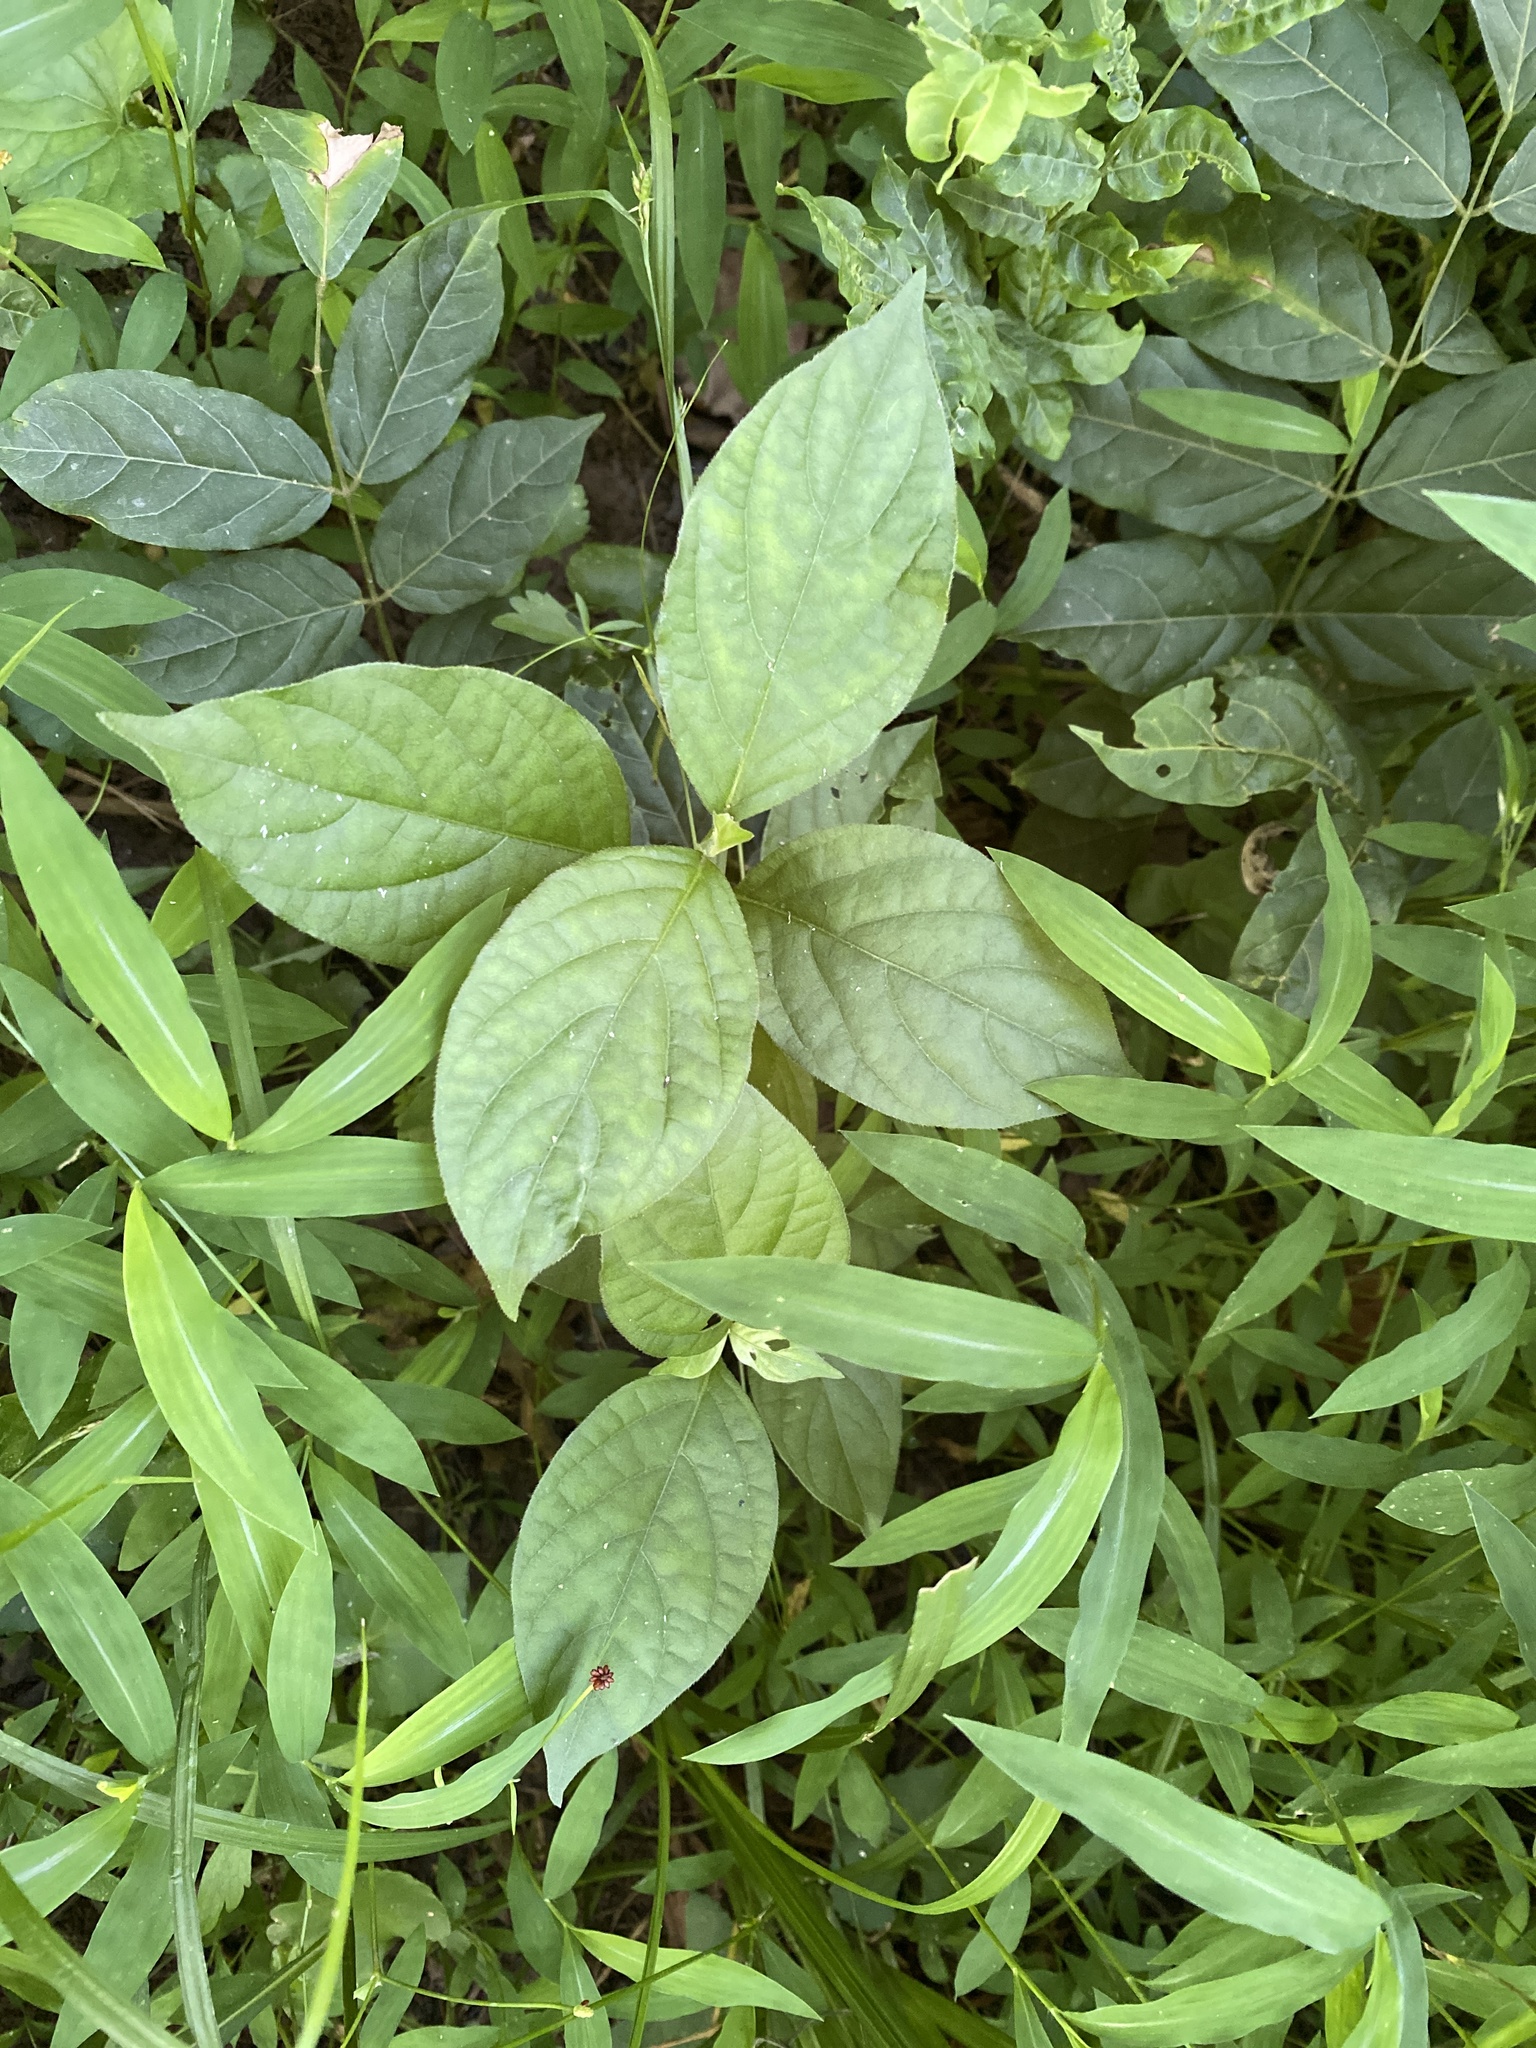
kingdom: Plantae
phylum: Tracheophyta
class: Magnoliopsida
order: Caryophyllales
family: Amaranthaceae
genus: Achyranthes
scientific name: Achyranthes bidentata
